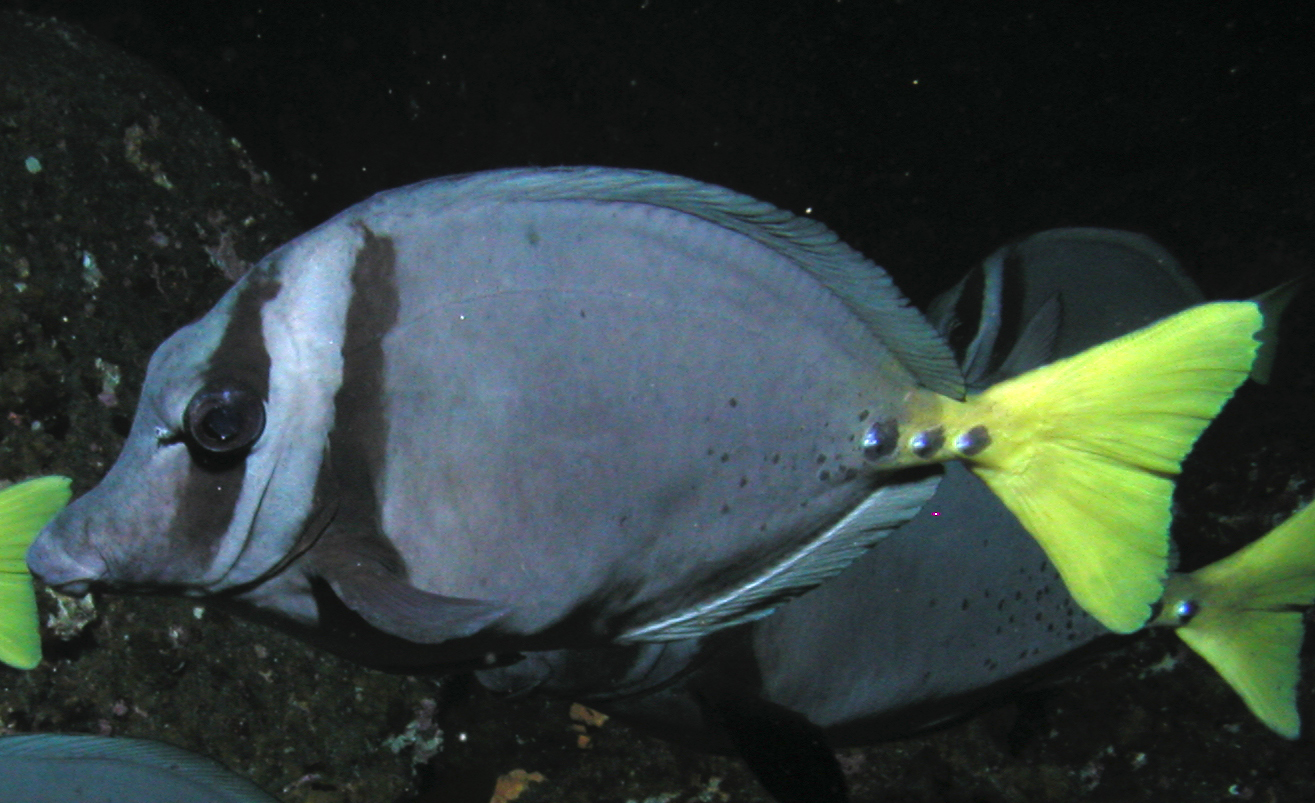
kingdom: Animalia
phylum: Chordata
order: Perciformes
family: Acanthuridae
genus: Prionurus
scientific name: Prionurus laticlavius
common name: Razor surgeonfish
